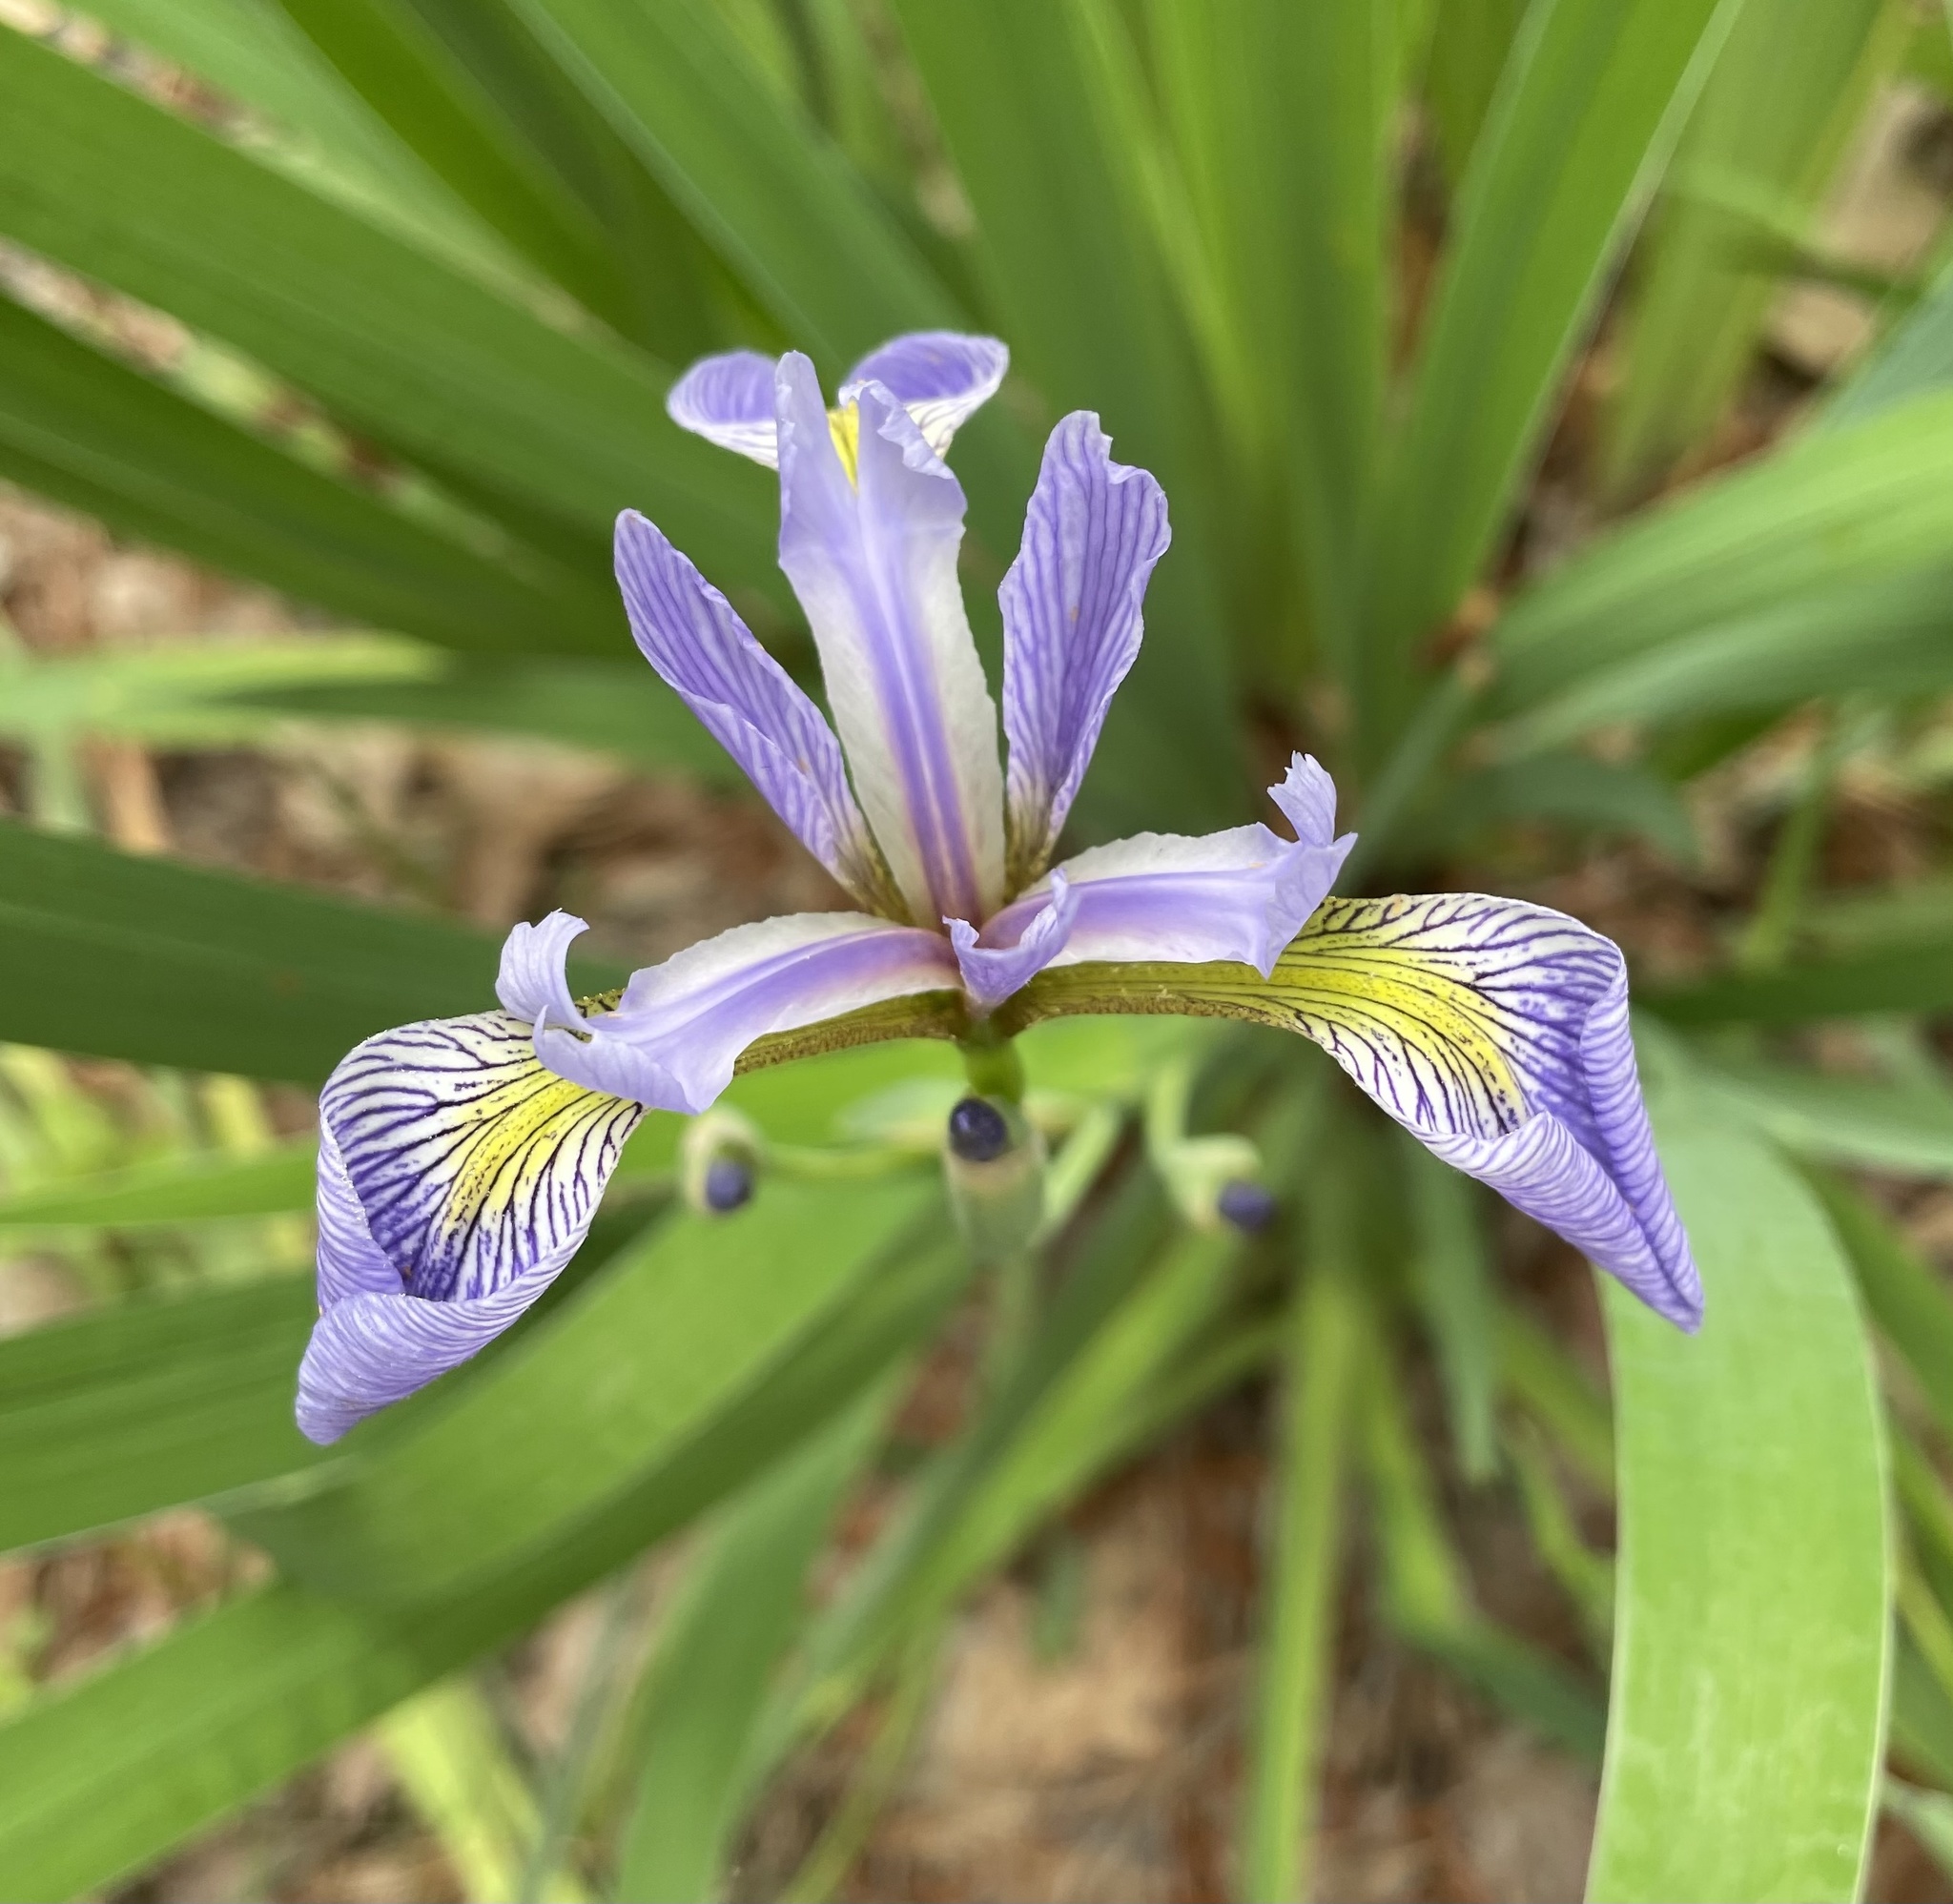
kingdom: Plantae
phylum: Tracheophyta
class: Liliopsida
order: Asparagales
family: Iridaceae
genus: Iris
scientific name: Iris virginica
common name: Southern blue flag
